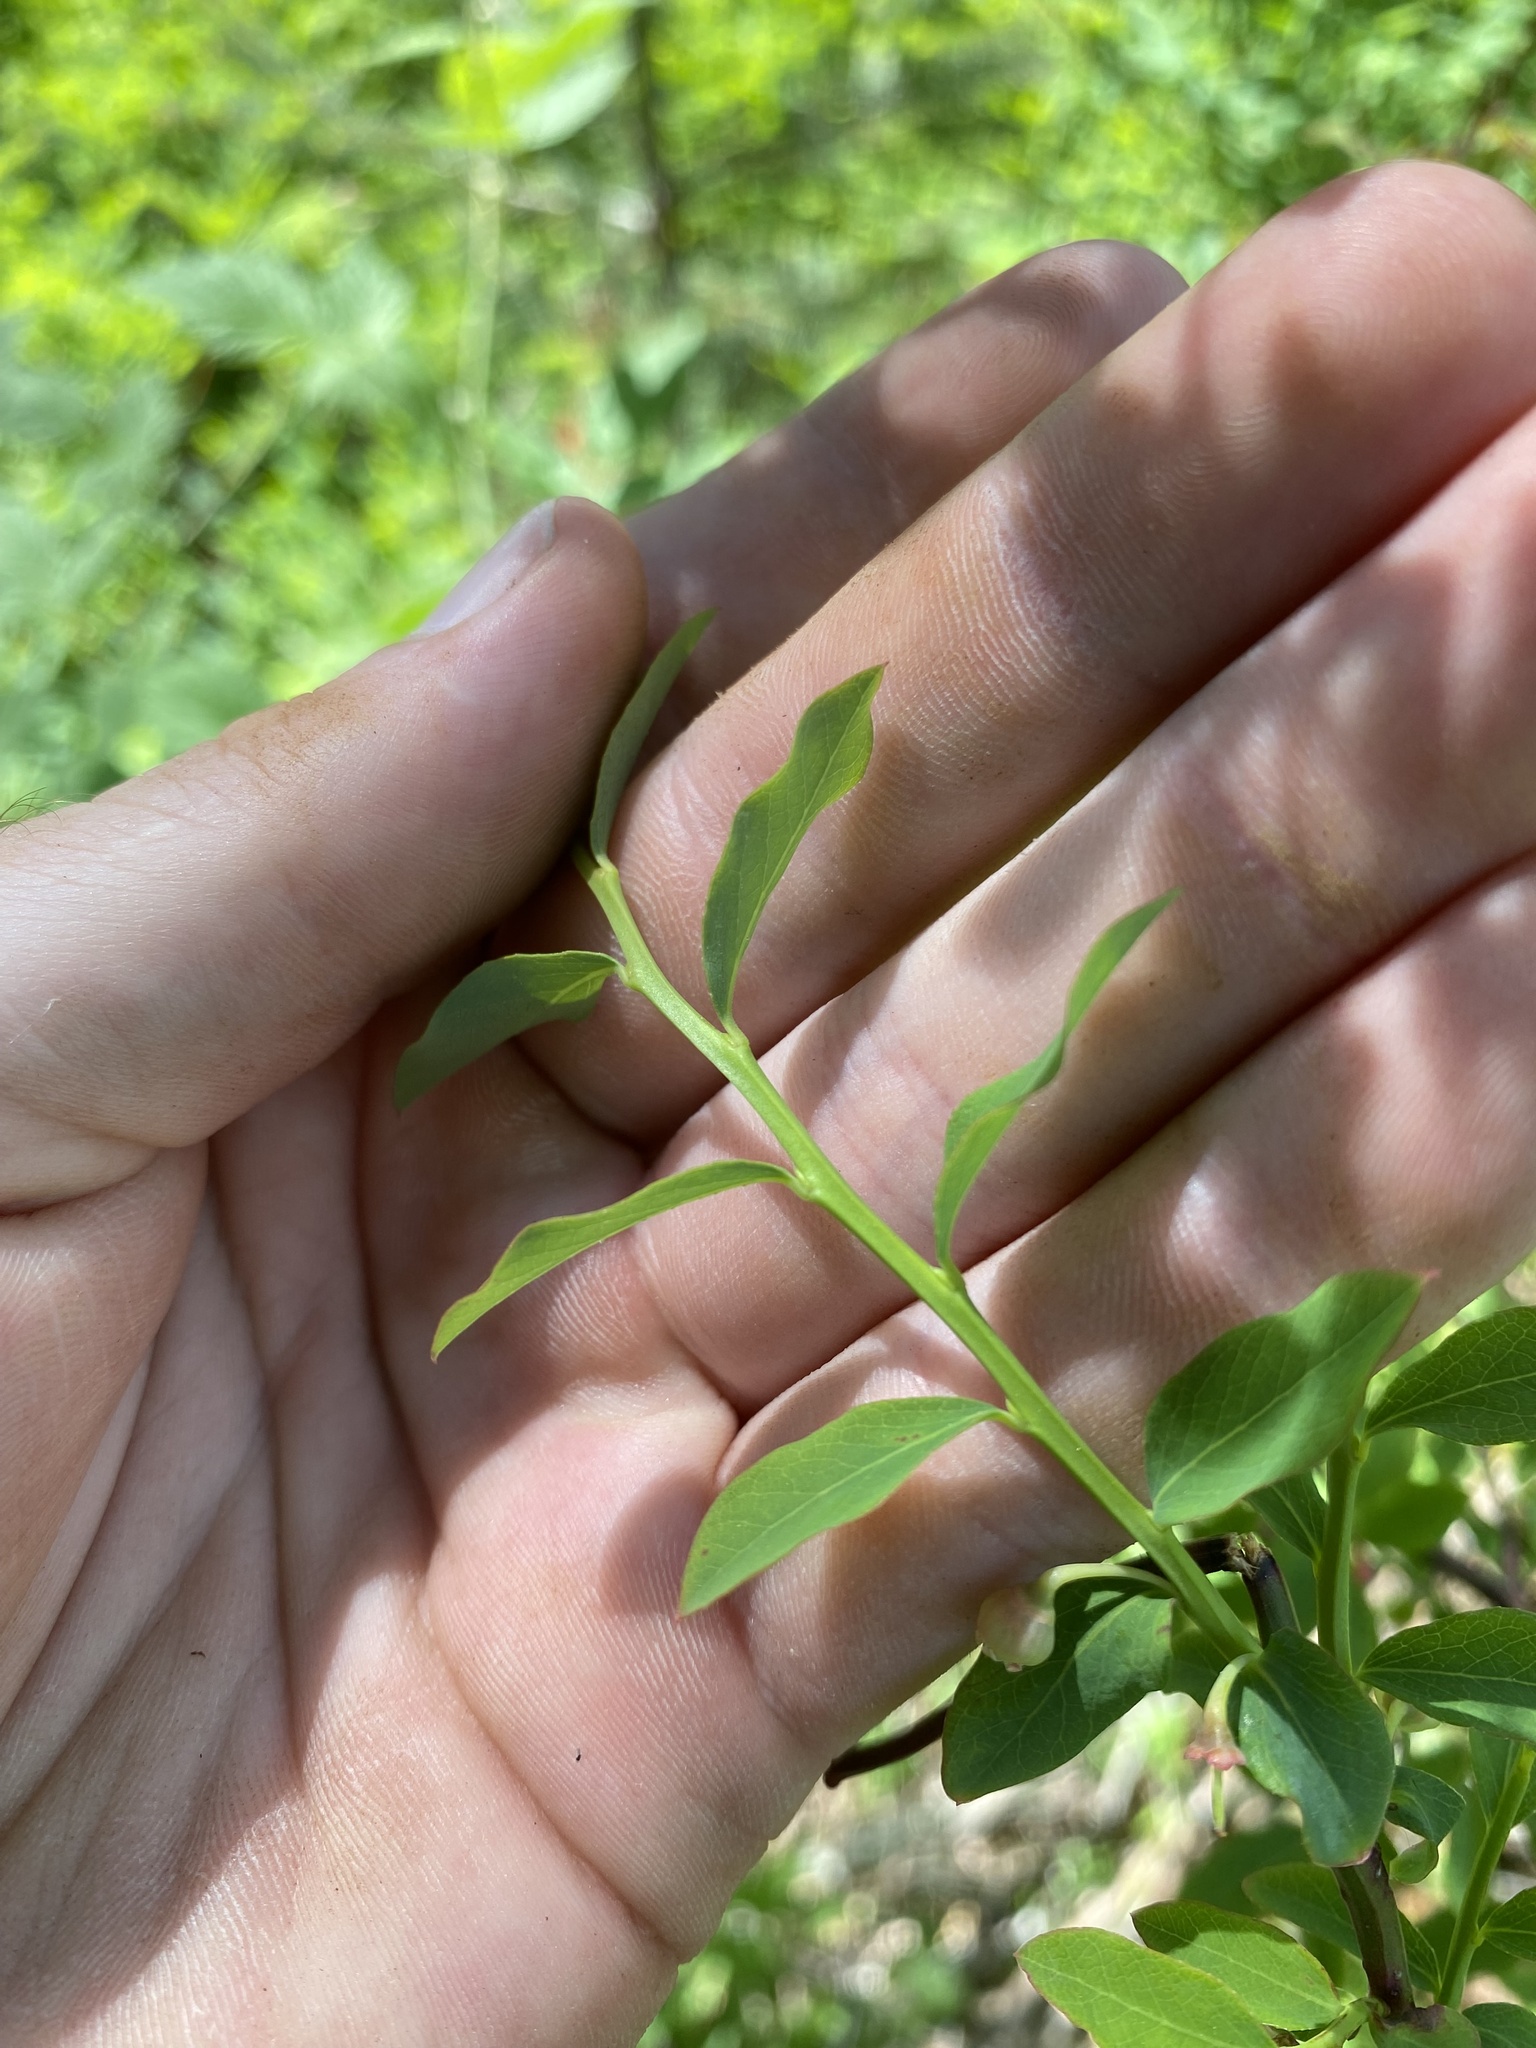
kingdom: Plantae
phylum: Tracheophyta
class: Magnoliopsida
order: Ericales
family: Ericaceae
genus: Vaccinium
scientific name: Vaccinium ovalifolium
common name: Early blueberry
